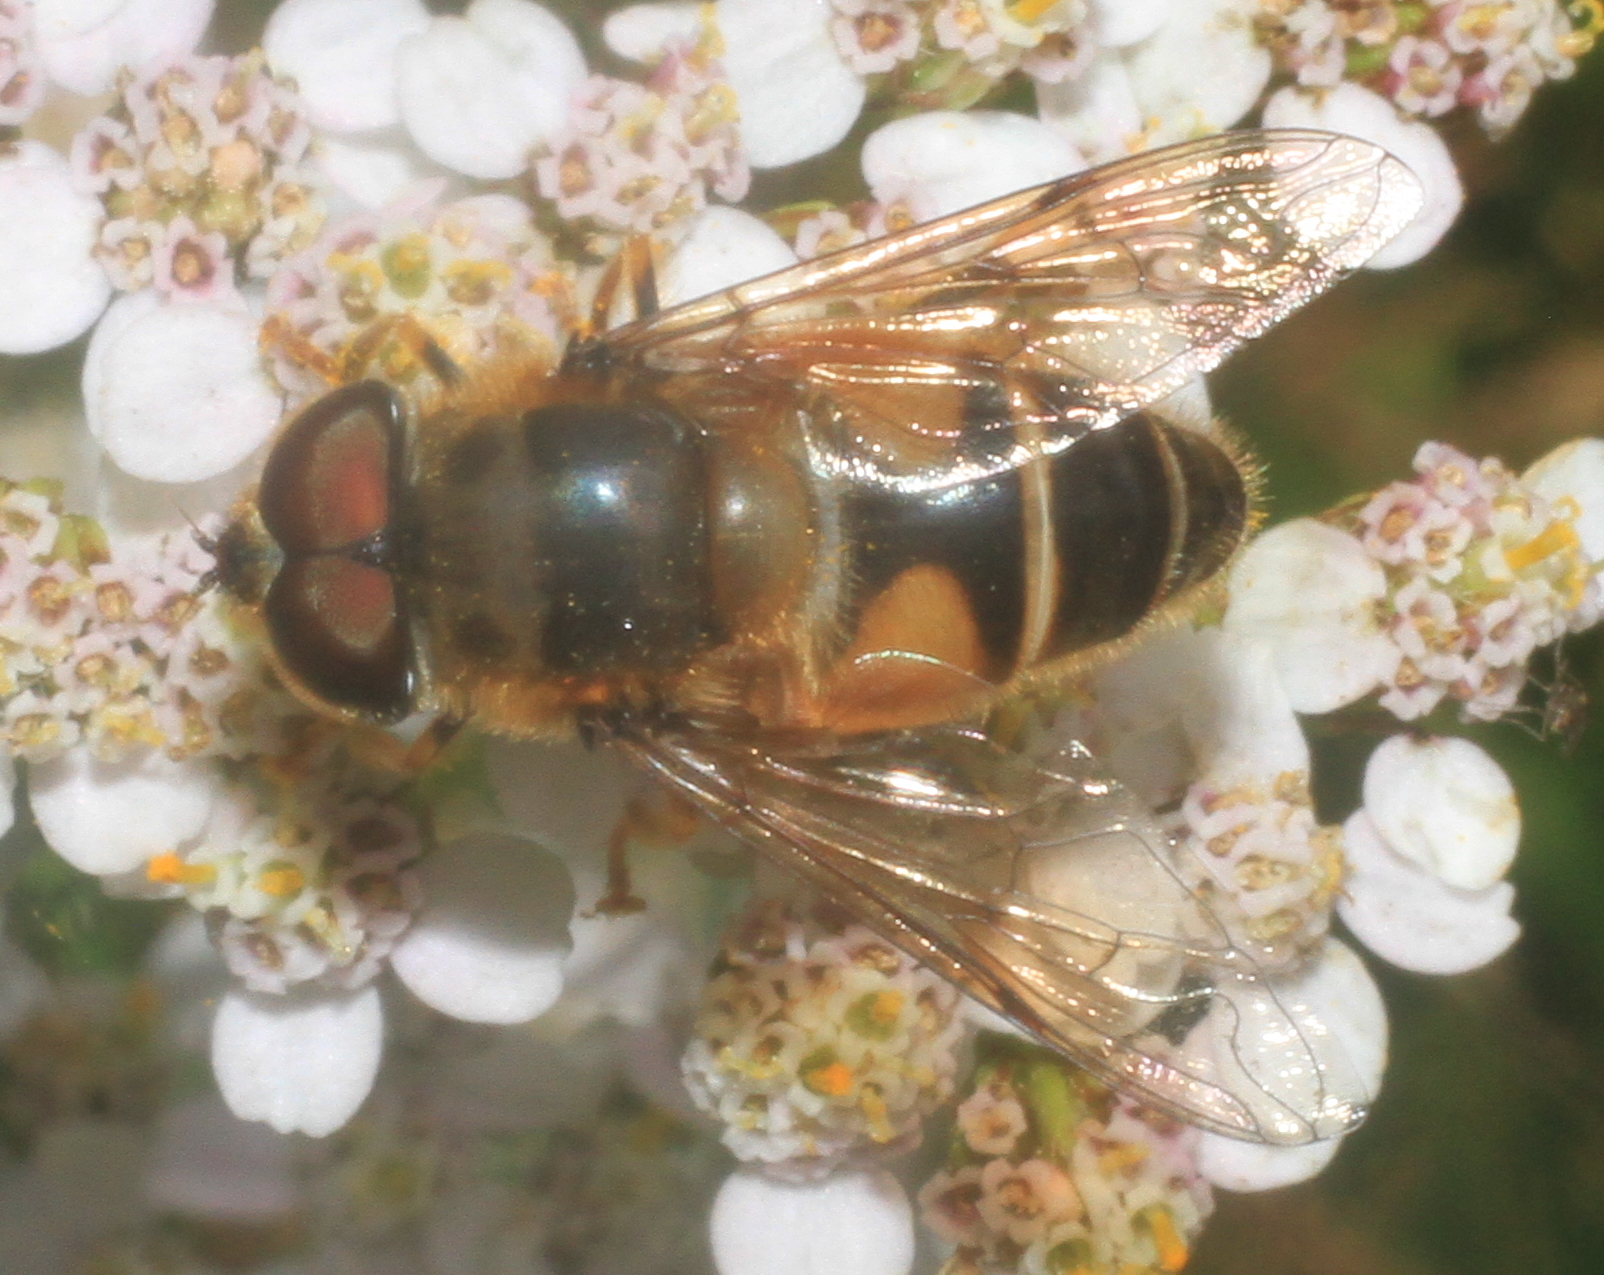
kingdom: Animalia
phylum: Arthropoda
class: Insecta
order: Diptera
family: Syrphidae
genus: Eristalis
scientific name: Eristalis pertinax
